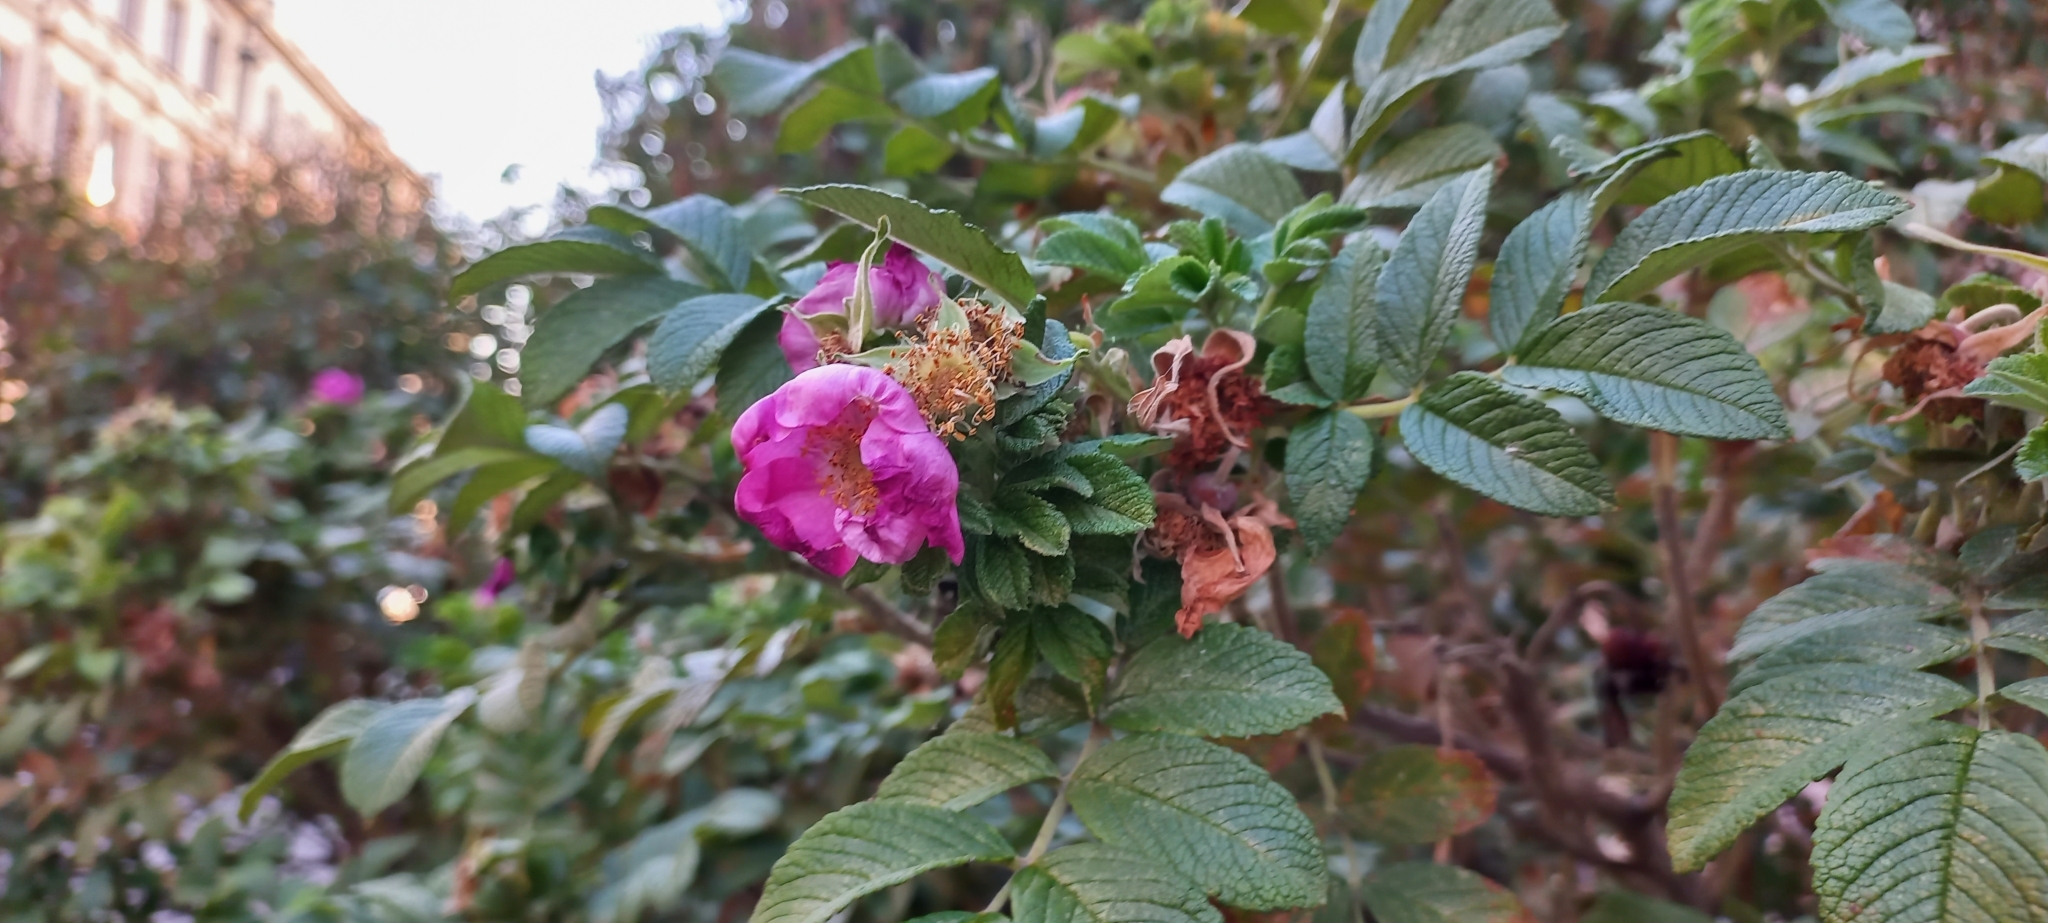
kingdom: Plantae
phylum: Tracheophyta
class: Magnoliopsida
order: Rosales
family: Rosaceae
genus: Rosa
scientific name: Rosa rugosa
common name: Japanese rose
